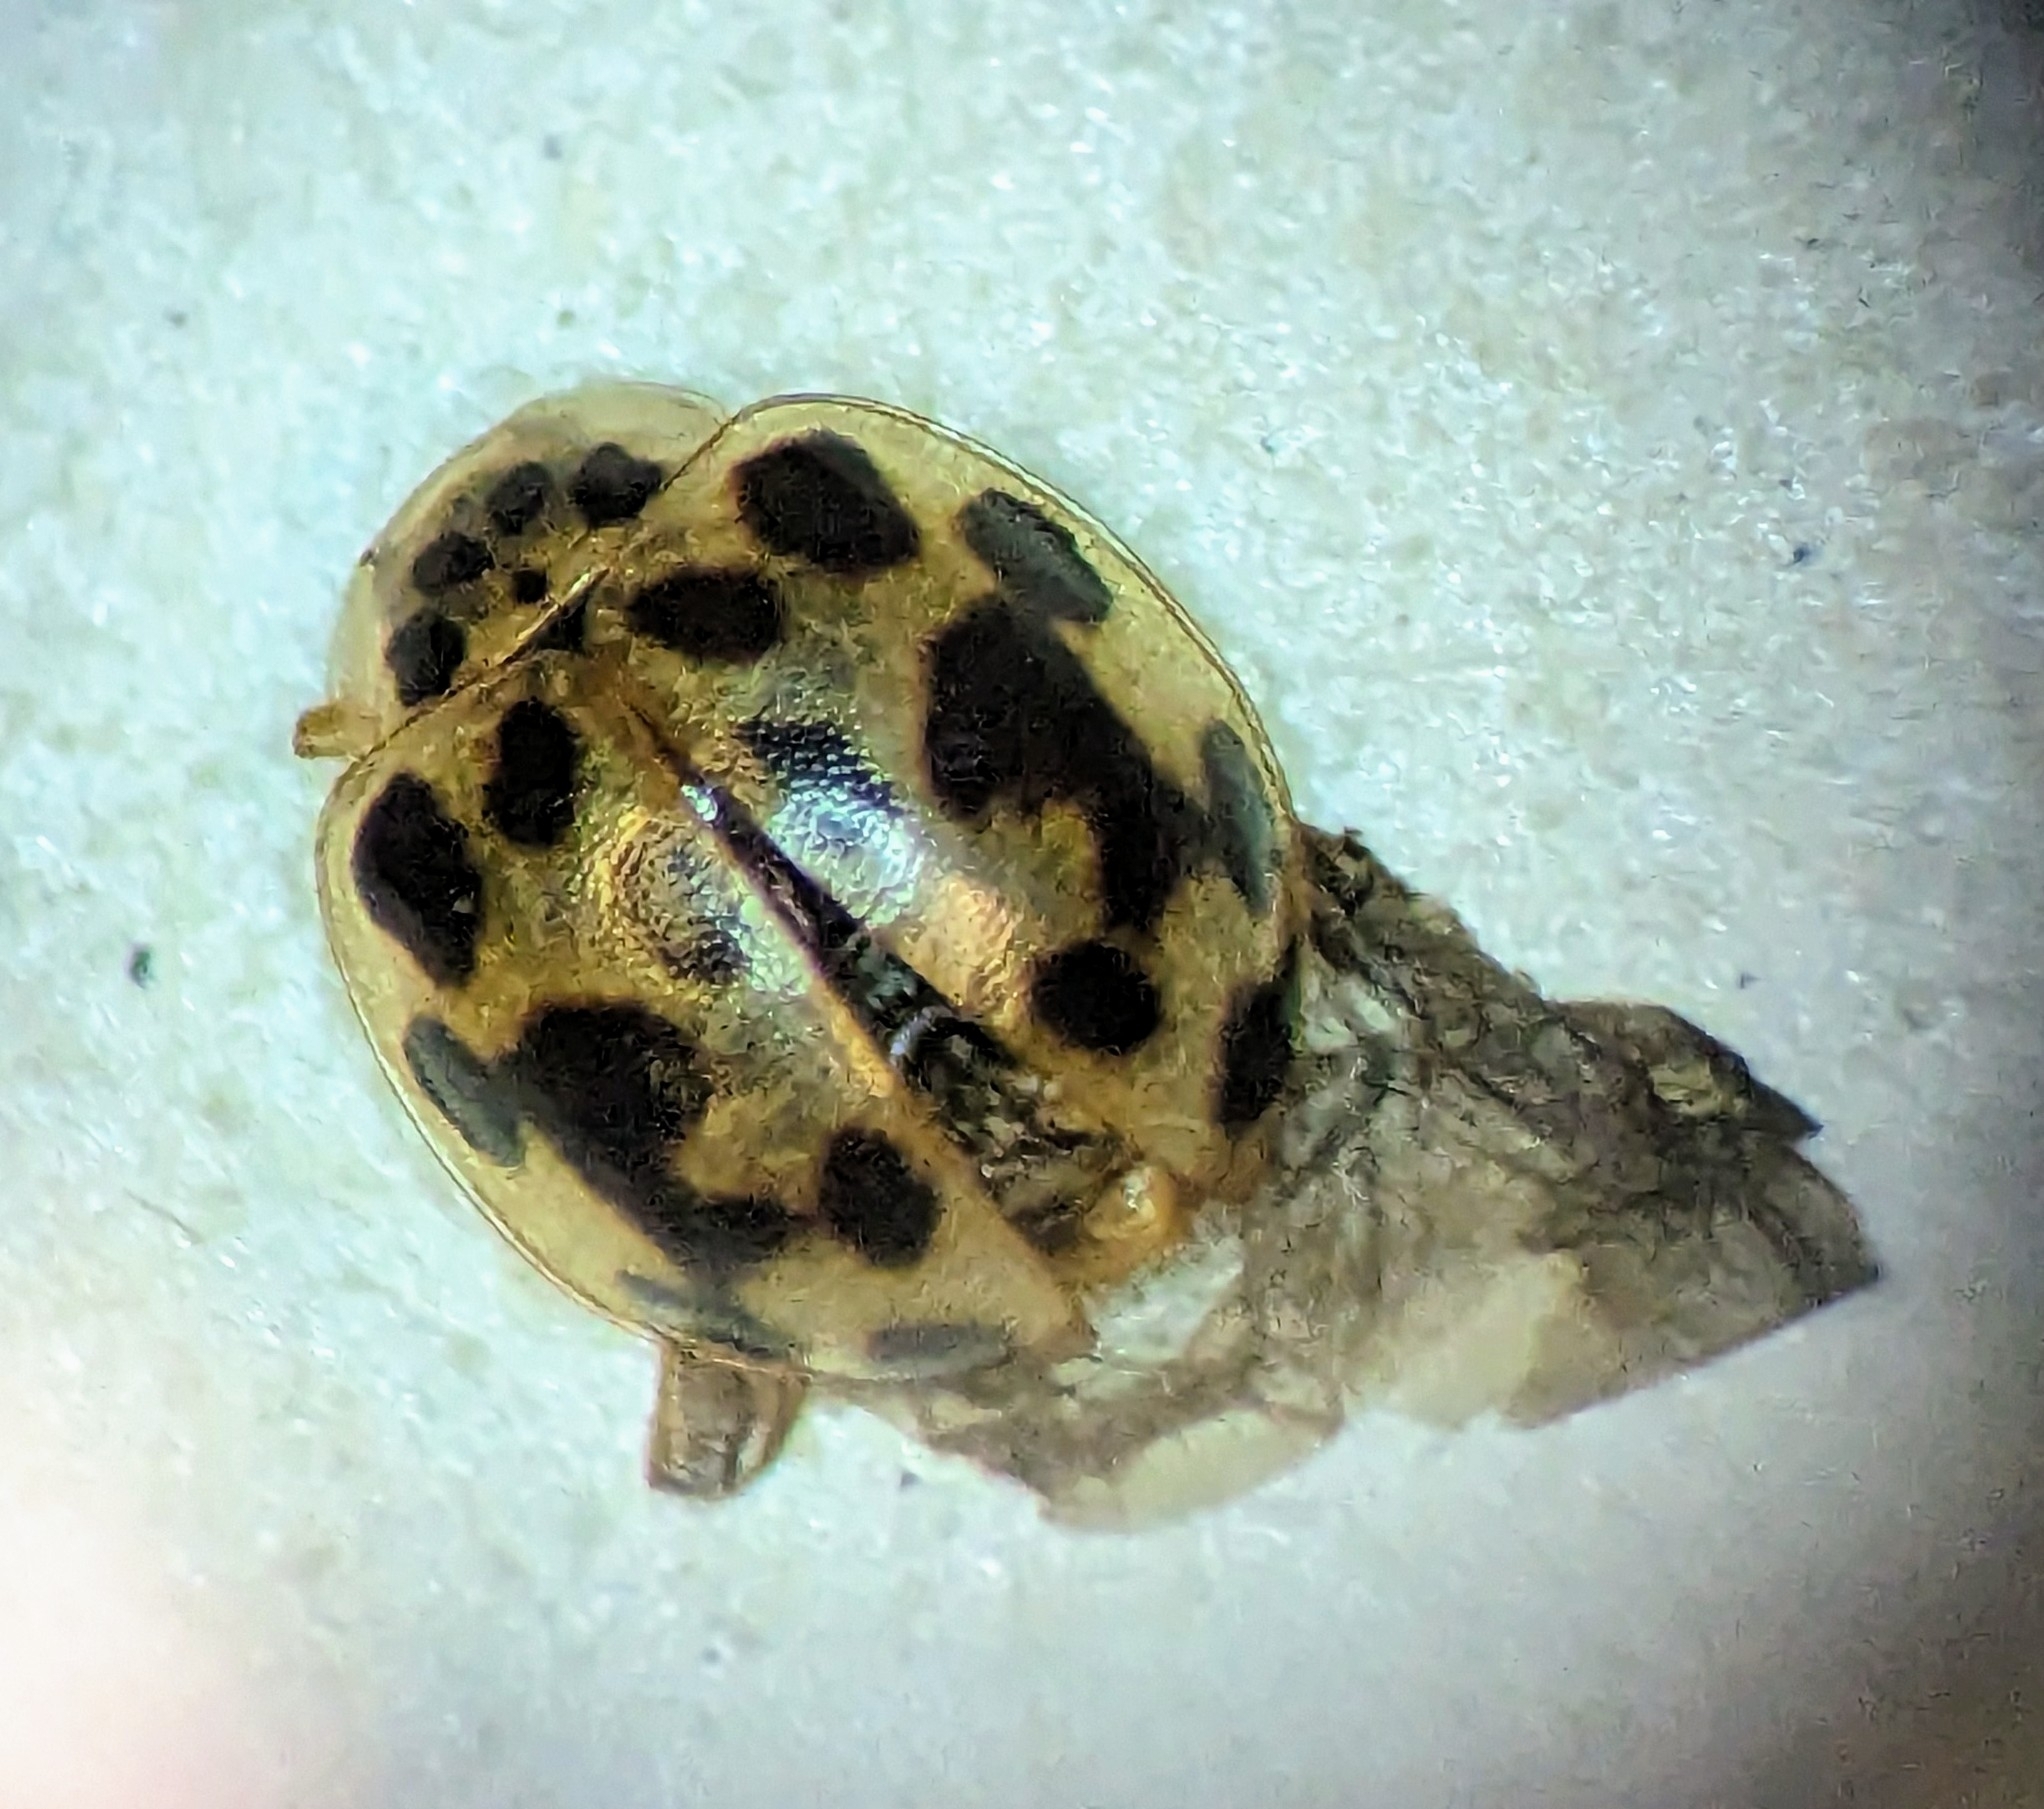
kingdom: Animalia
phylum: Arthropoda
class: Insecta
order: Coleoptera
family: Coccinellidae
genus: Psyllobora
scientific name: Psyllobora vigintimaculata
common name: Ladybird beetle
